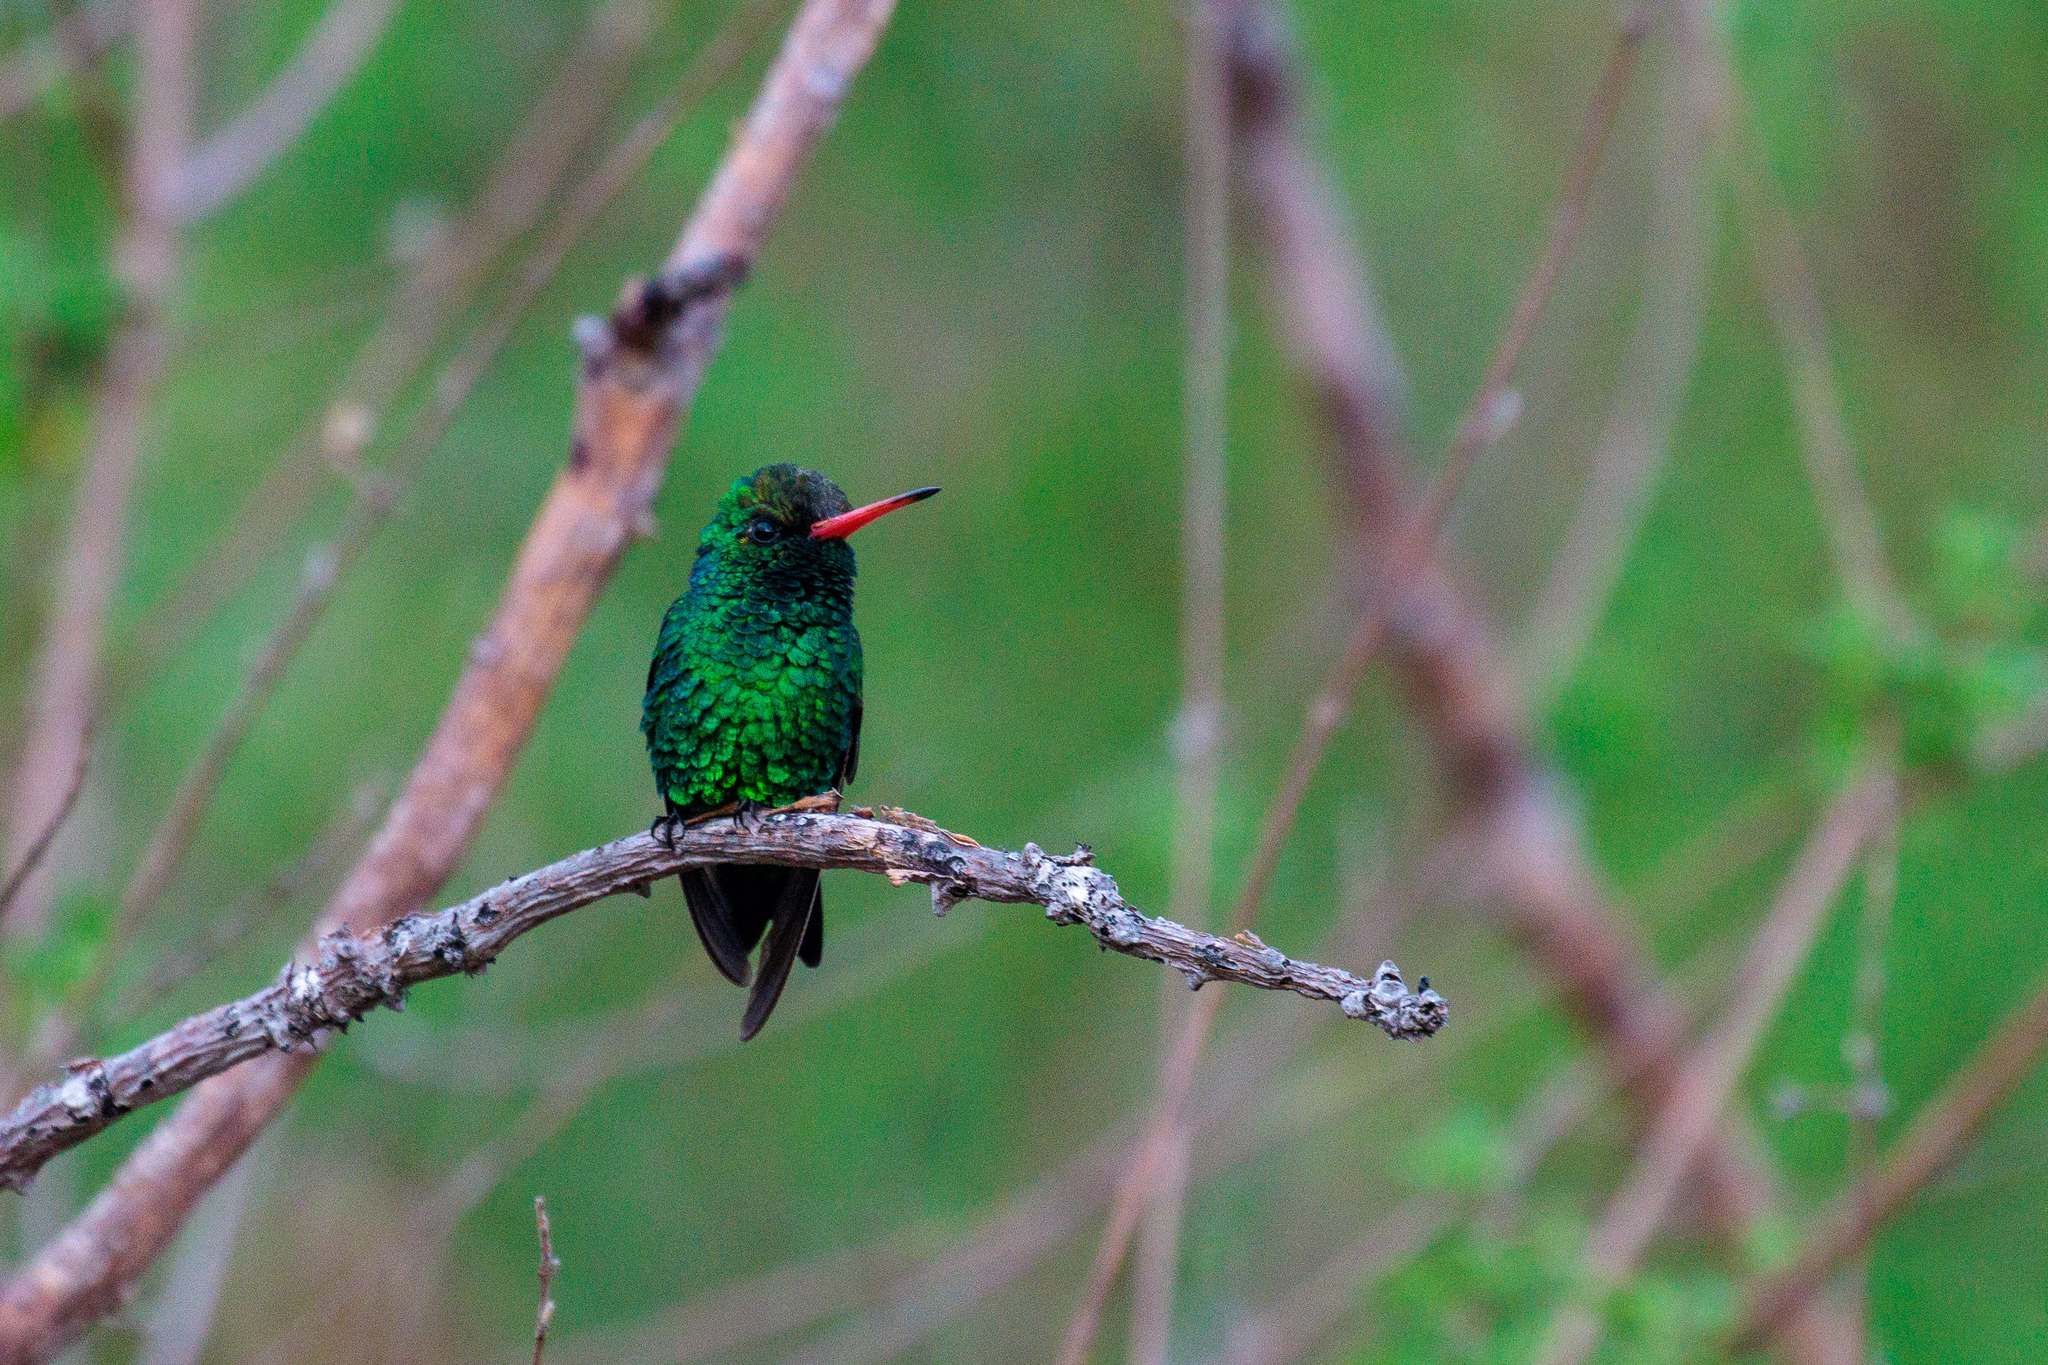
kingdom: Animalia
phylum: Chordata
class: Aves
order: Apodiformes
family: Trochilidae
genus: Chlorostilbon
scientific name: Chlorostilbon lucidus
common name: Glittering-bellied emerald
